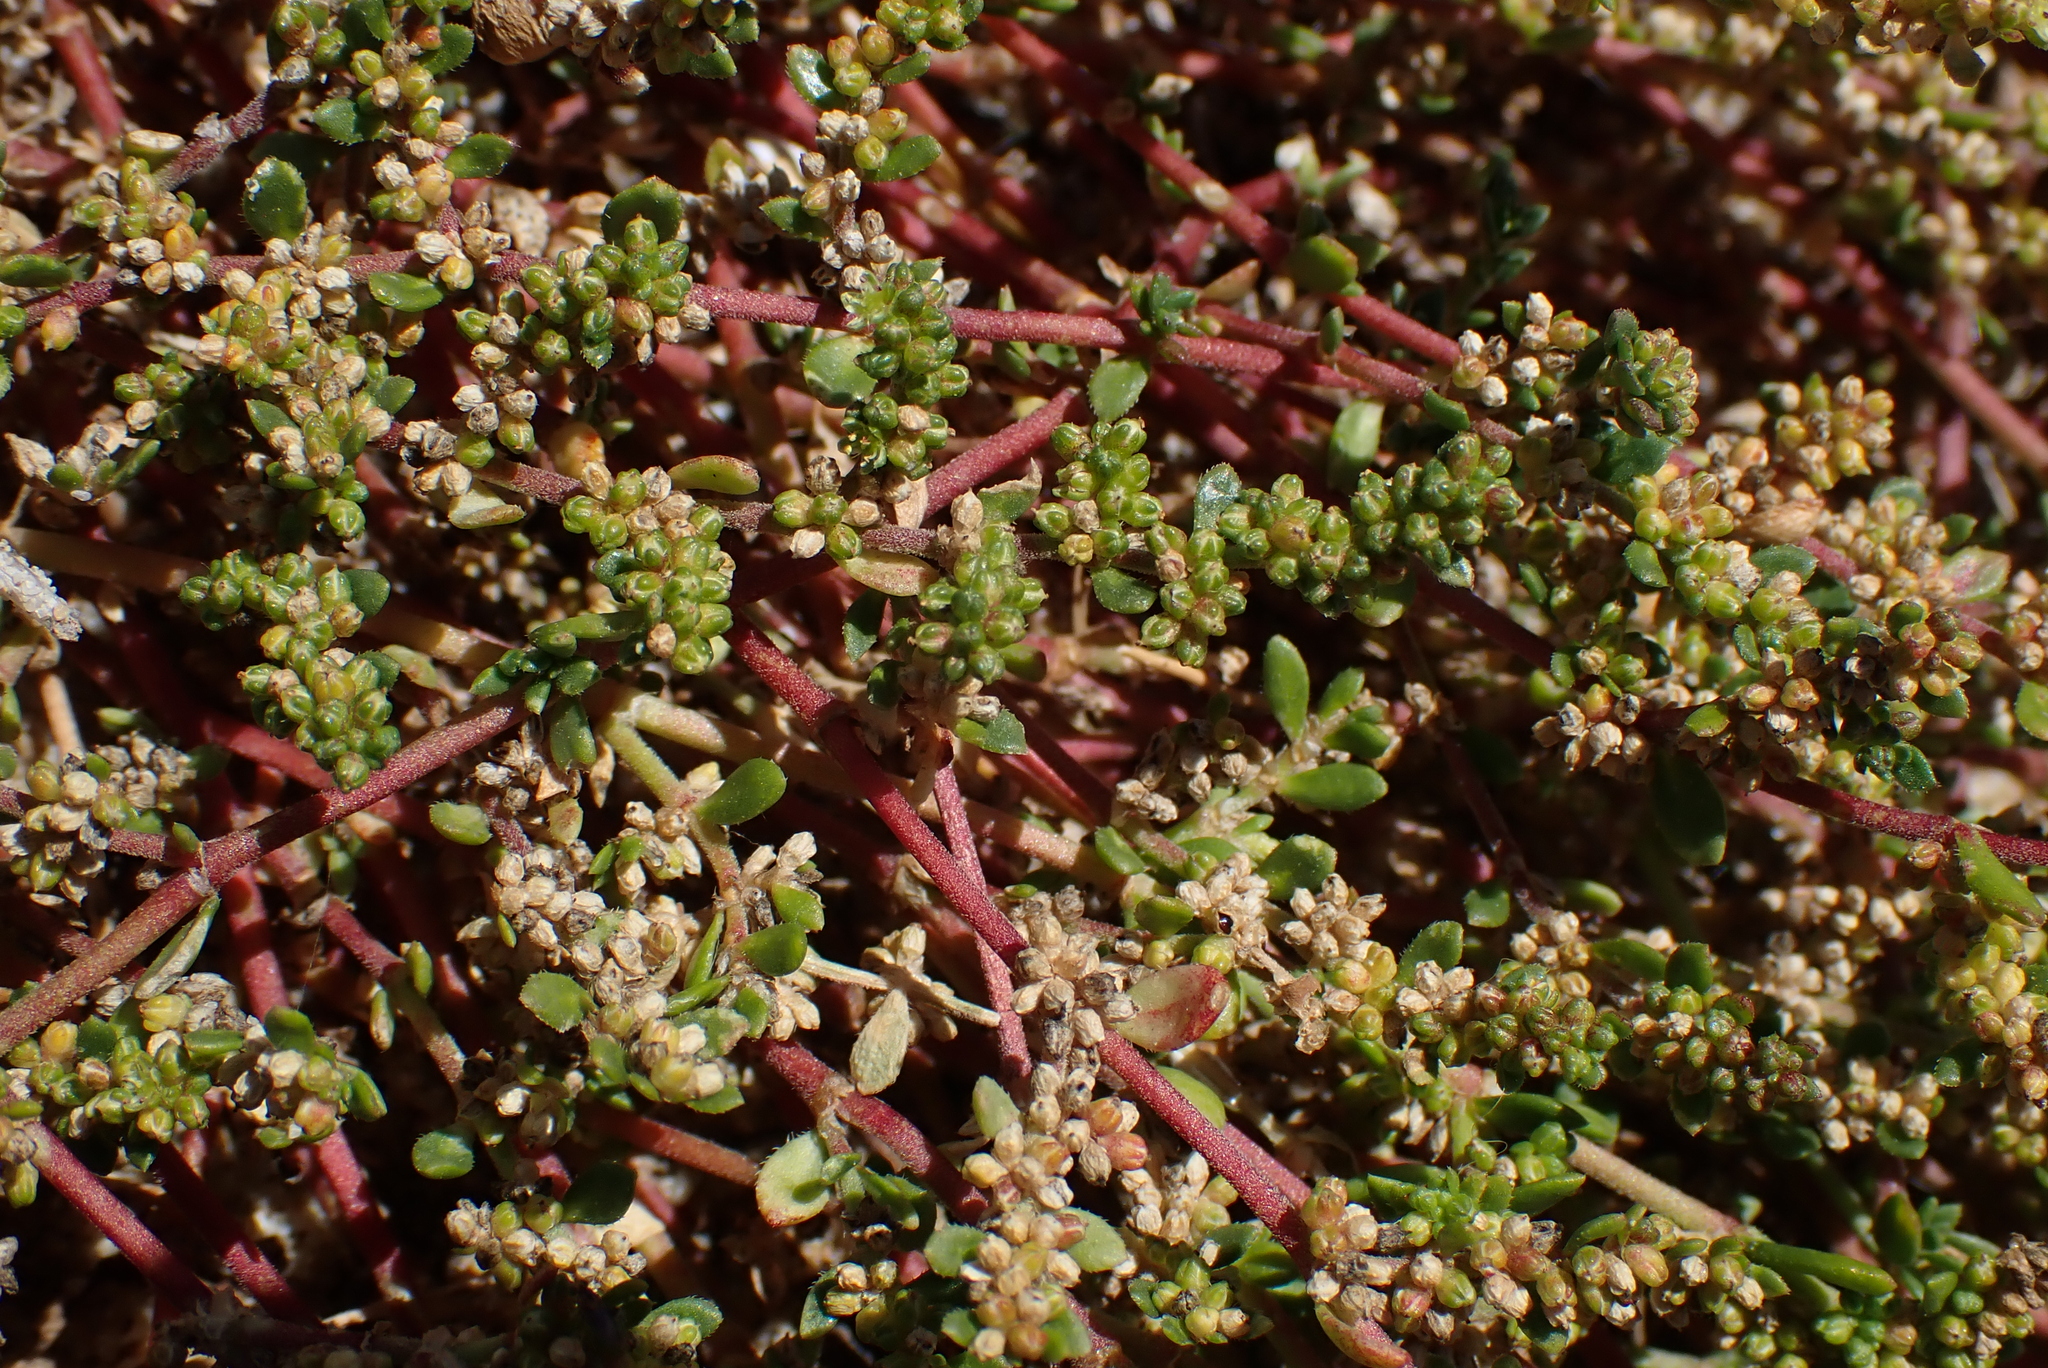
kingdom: Plantae
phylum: Tracheophyta
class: Magnoliopsida
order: Caryophyllales
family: Caryophyllaceae
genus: Herniaria
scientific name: Herniaria ciliolata
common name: Fringed rupture-wort
